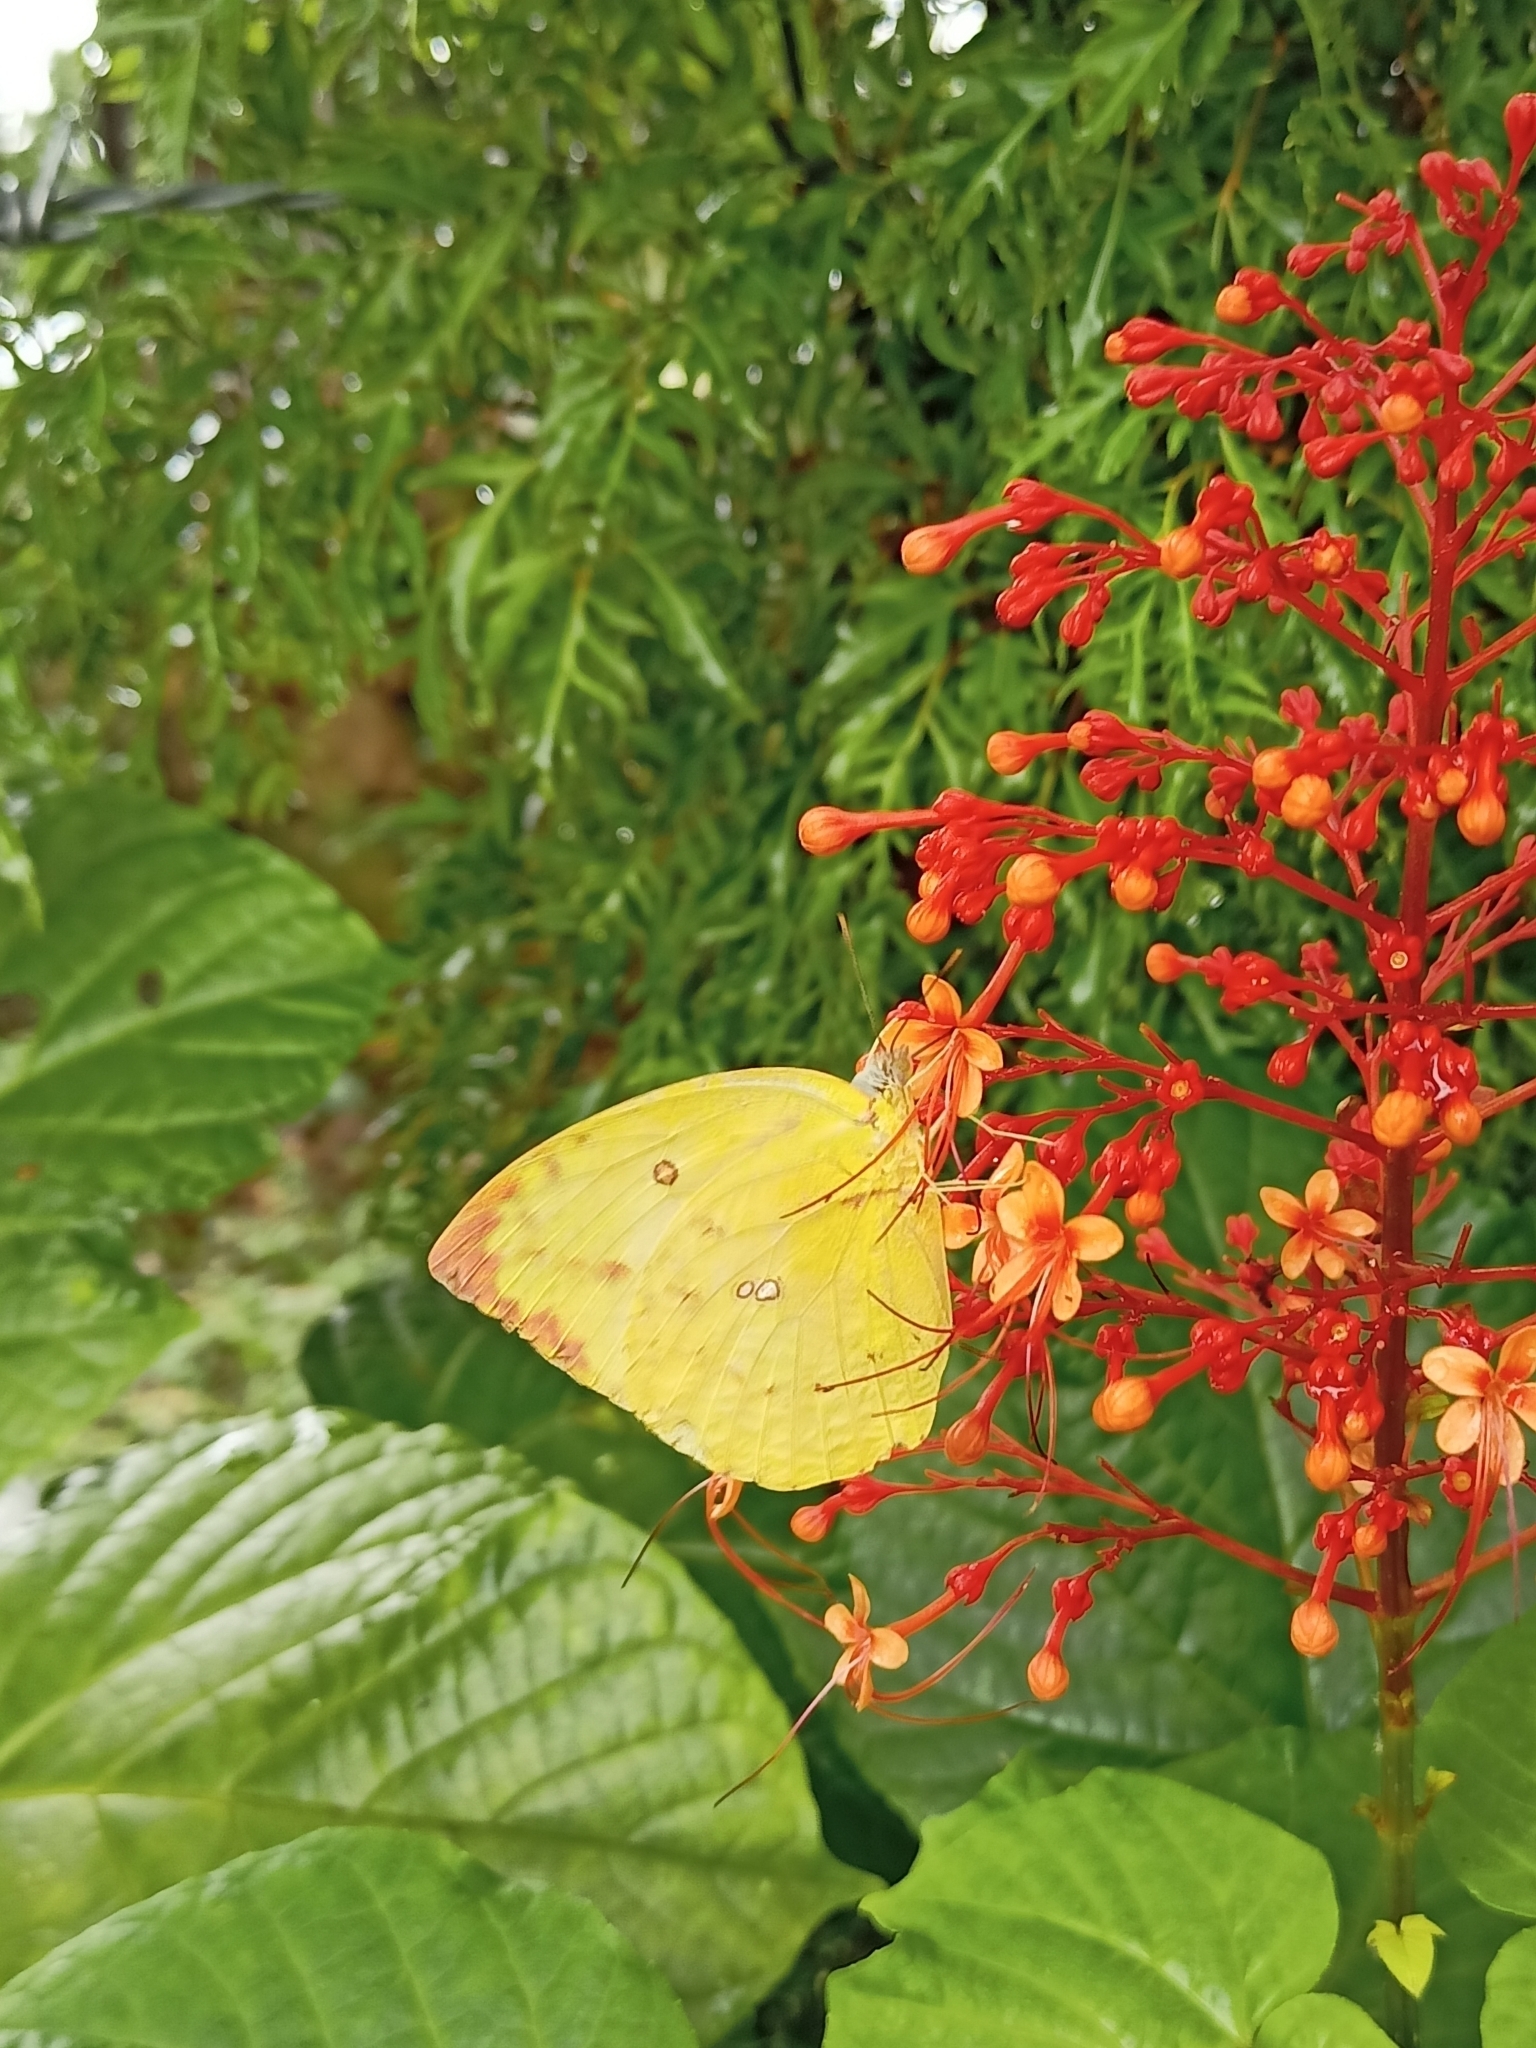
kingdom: Animalia
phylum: Arthropoda
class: Insecta
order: Lepidoptera
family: Pieridae
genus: Catopsilia
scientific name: Catopsilia pomona
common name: Common emigrant
